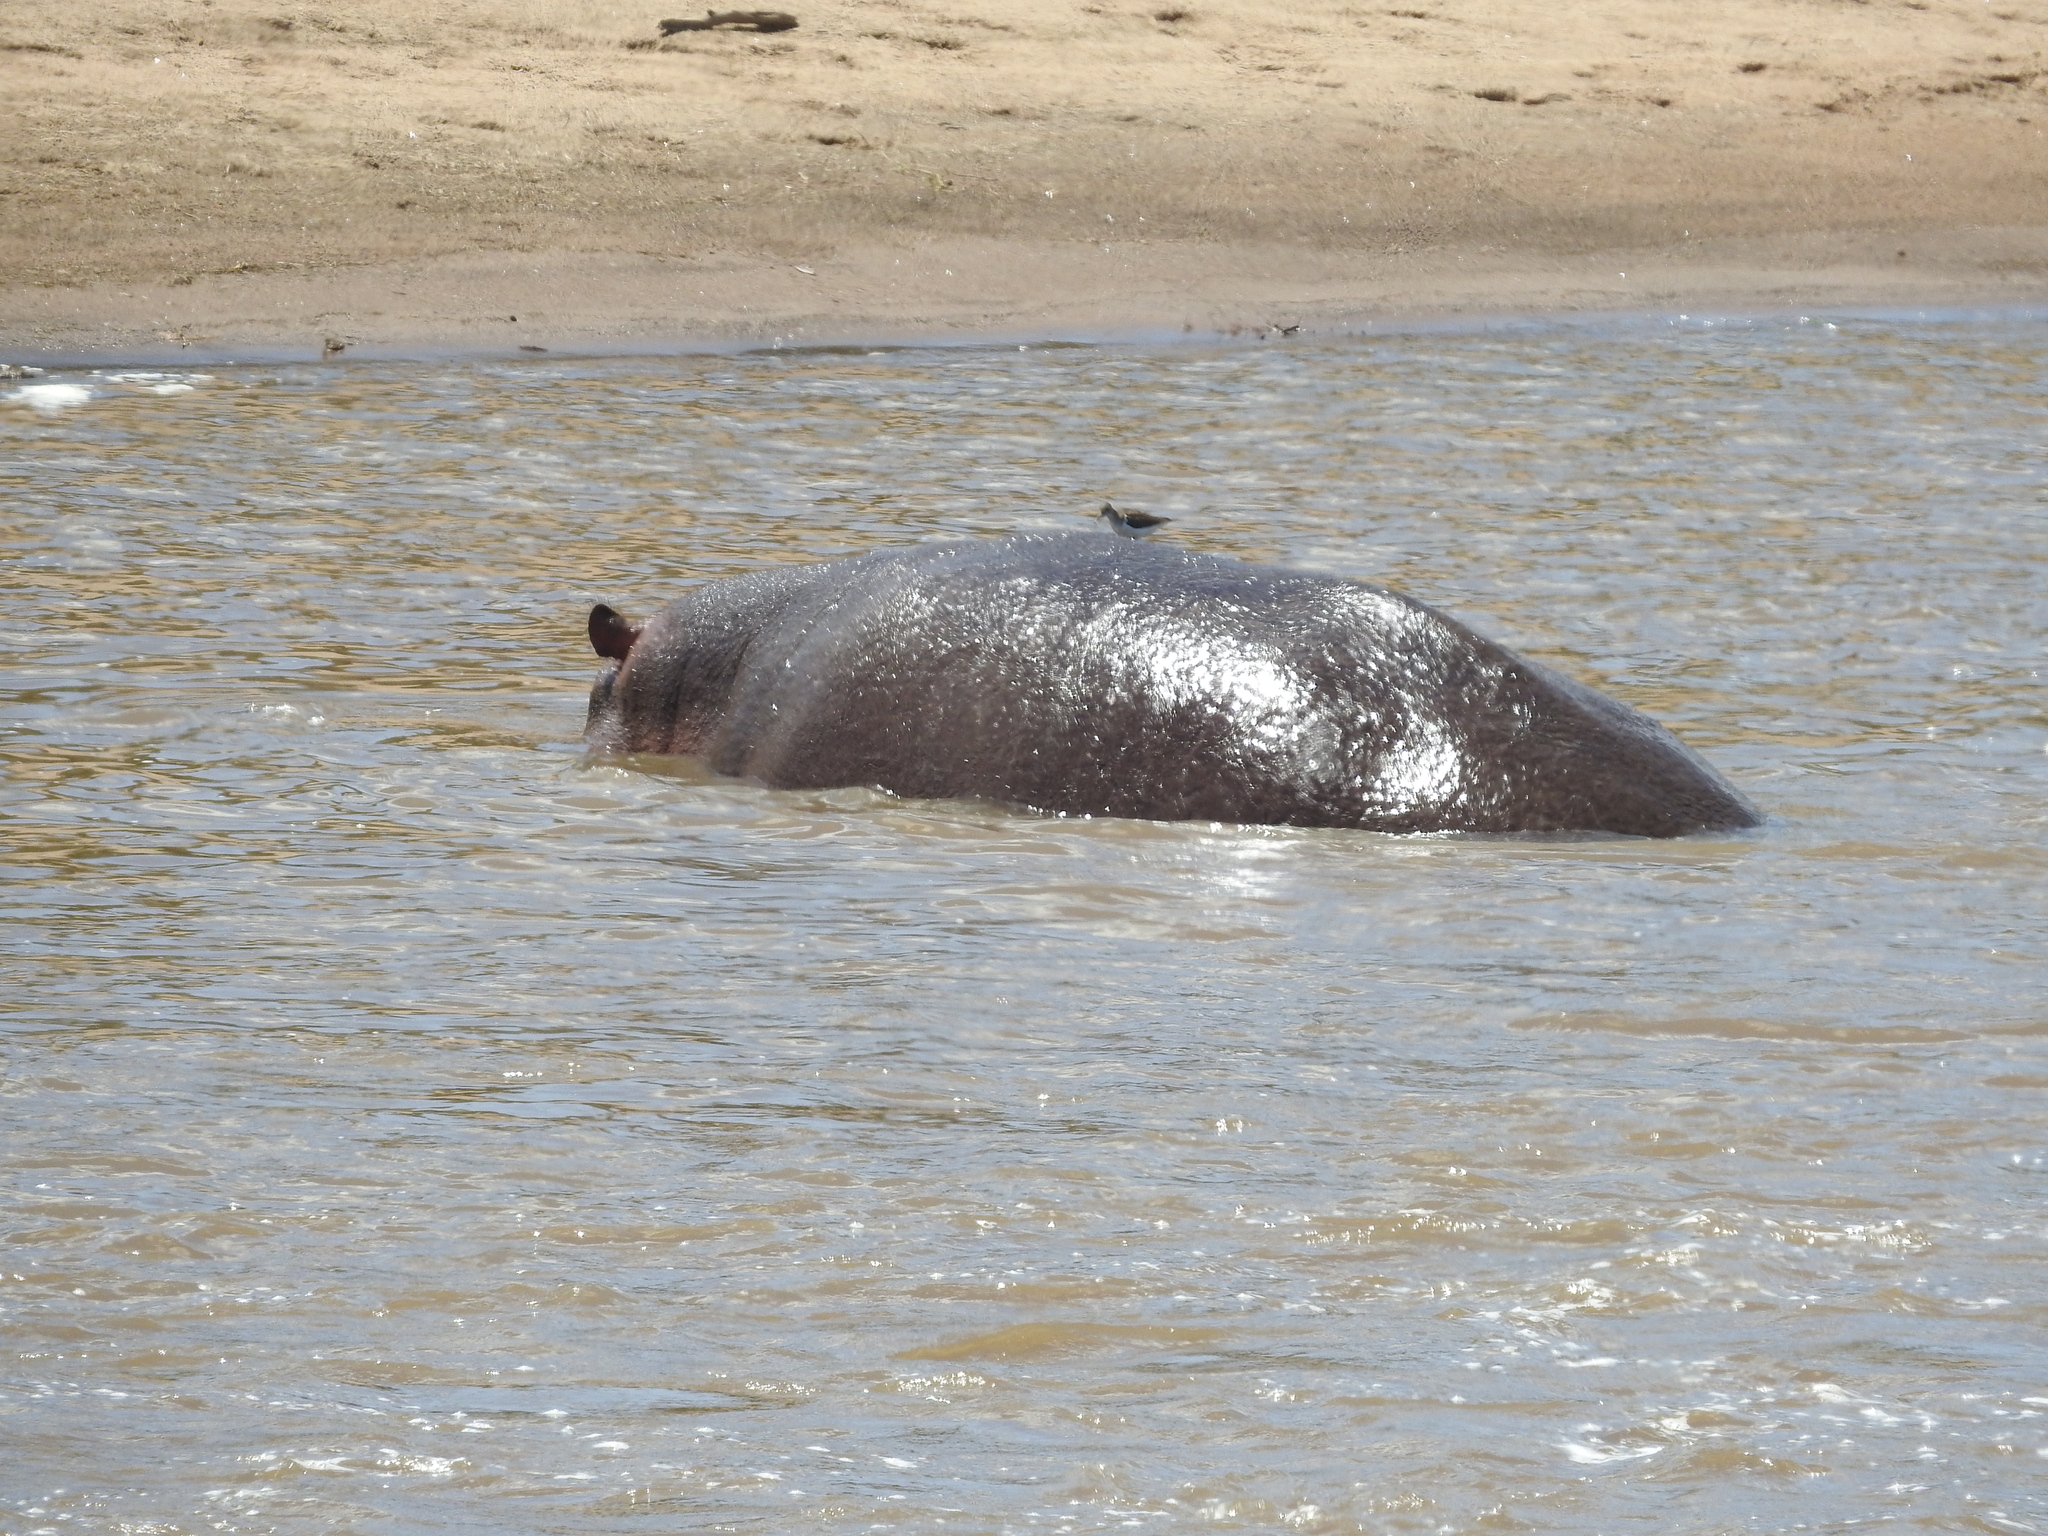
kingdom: Animalia
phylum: Chordata
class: Mammalia
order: Artiodactyla
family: Hippopotamidae
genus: Hippopotamus
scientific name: Hippopotamus amphibius
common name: Common hippopotamus
